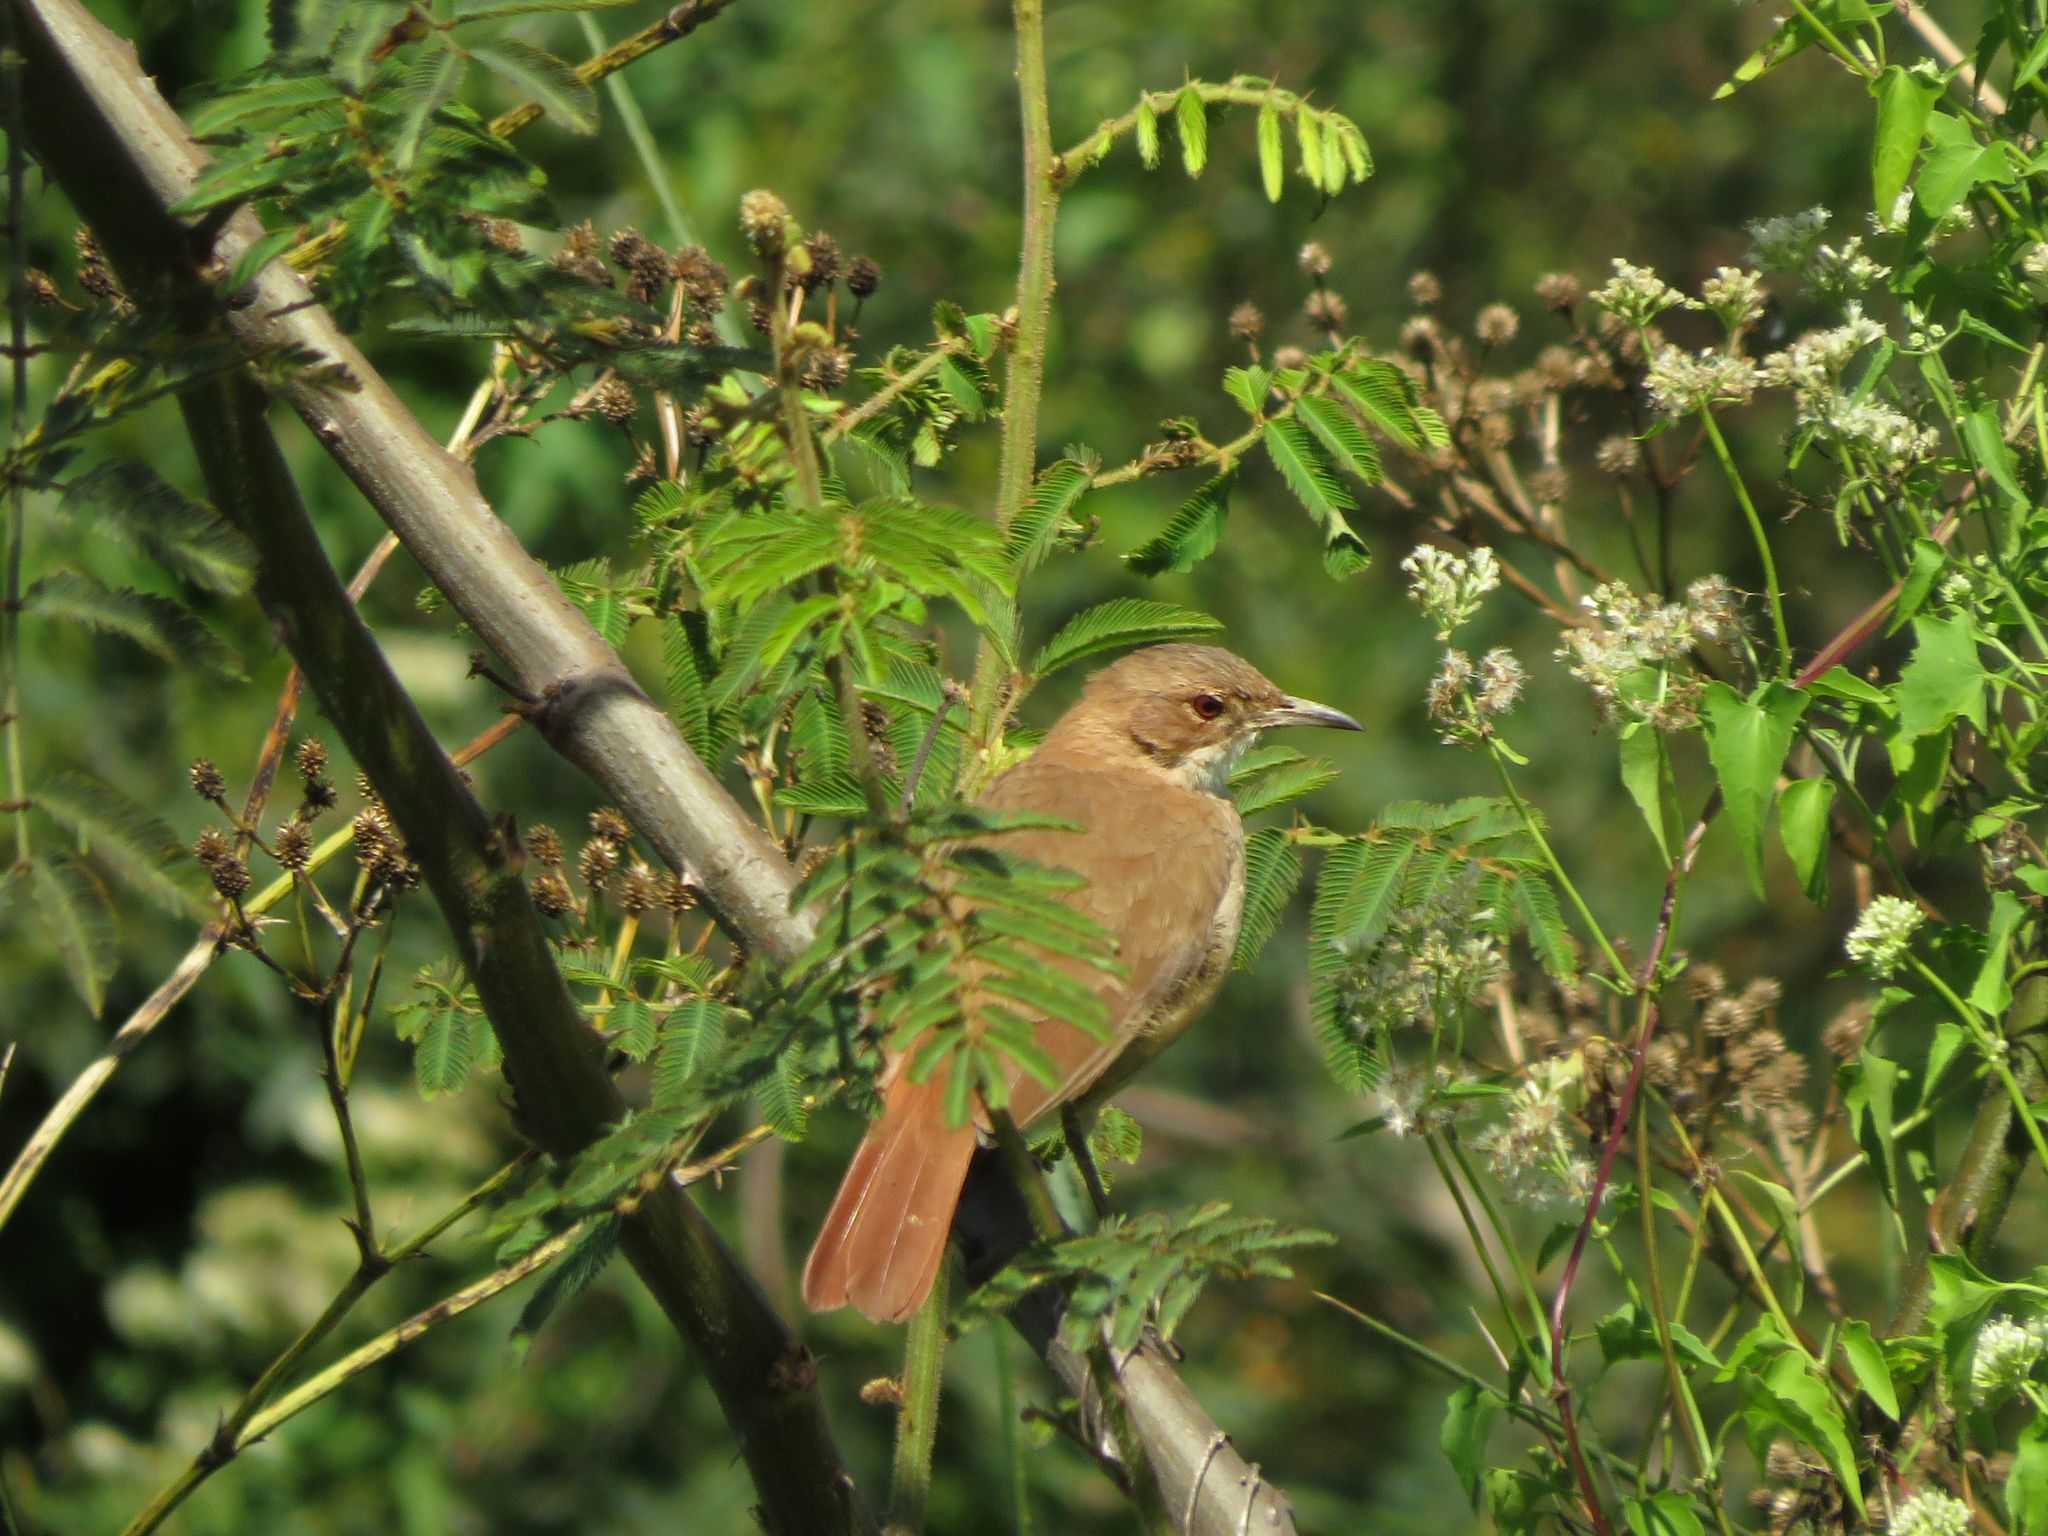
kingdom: Animalia
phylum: Chordata
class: Aves
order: Passeriformes
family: Furnariidae
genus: Furnarius
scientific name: Furnarius rufus
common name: Rufous hornero
